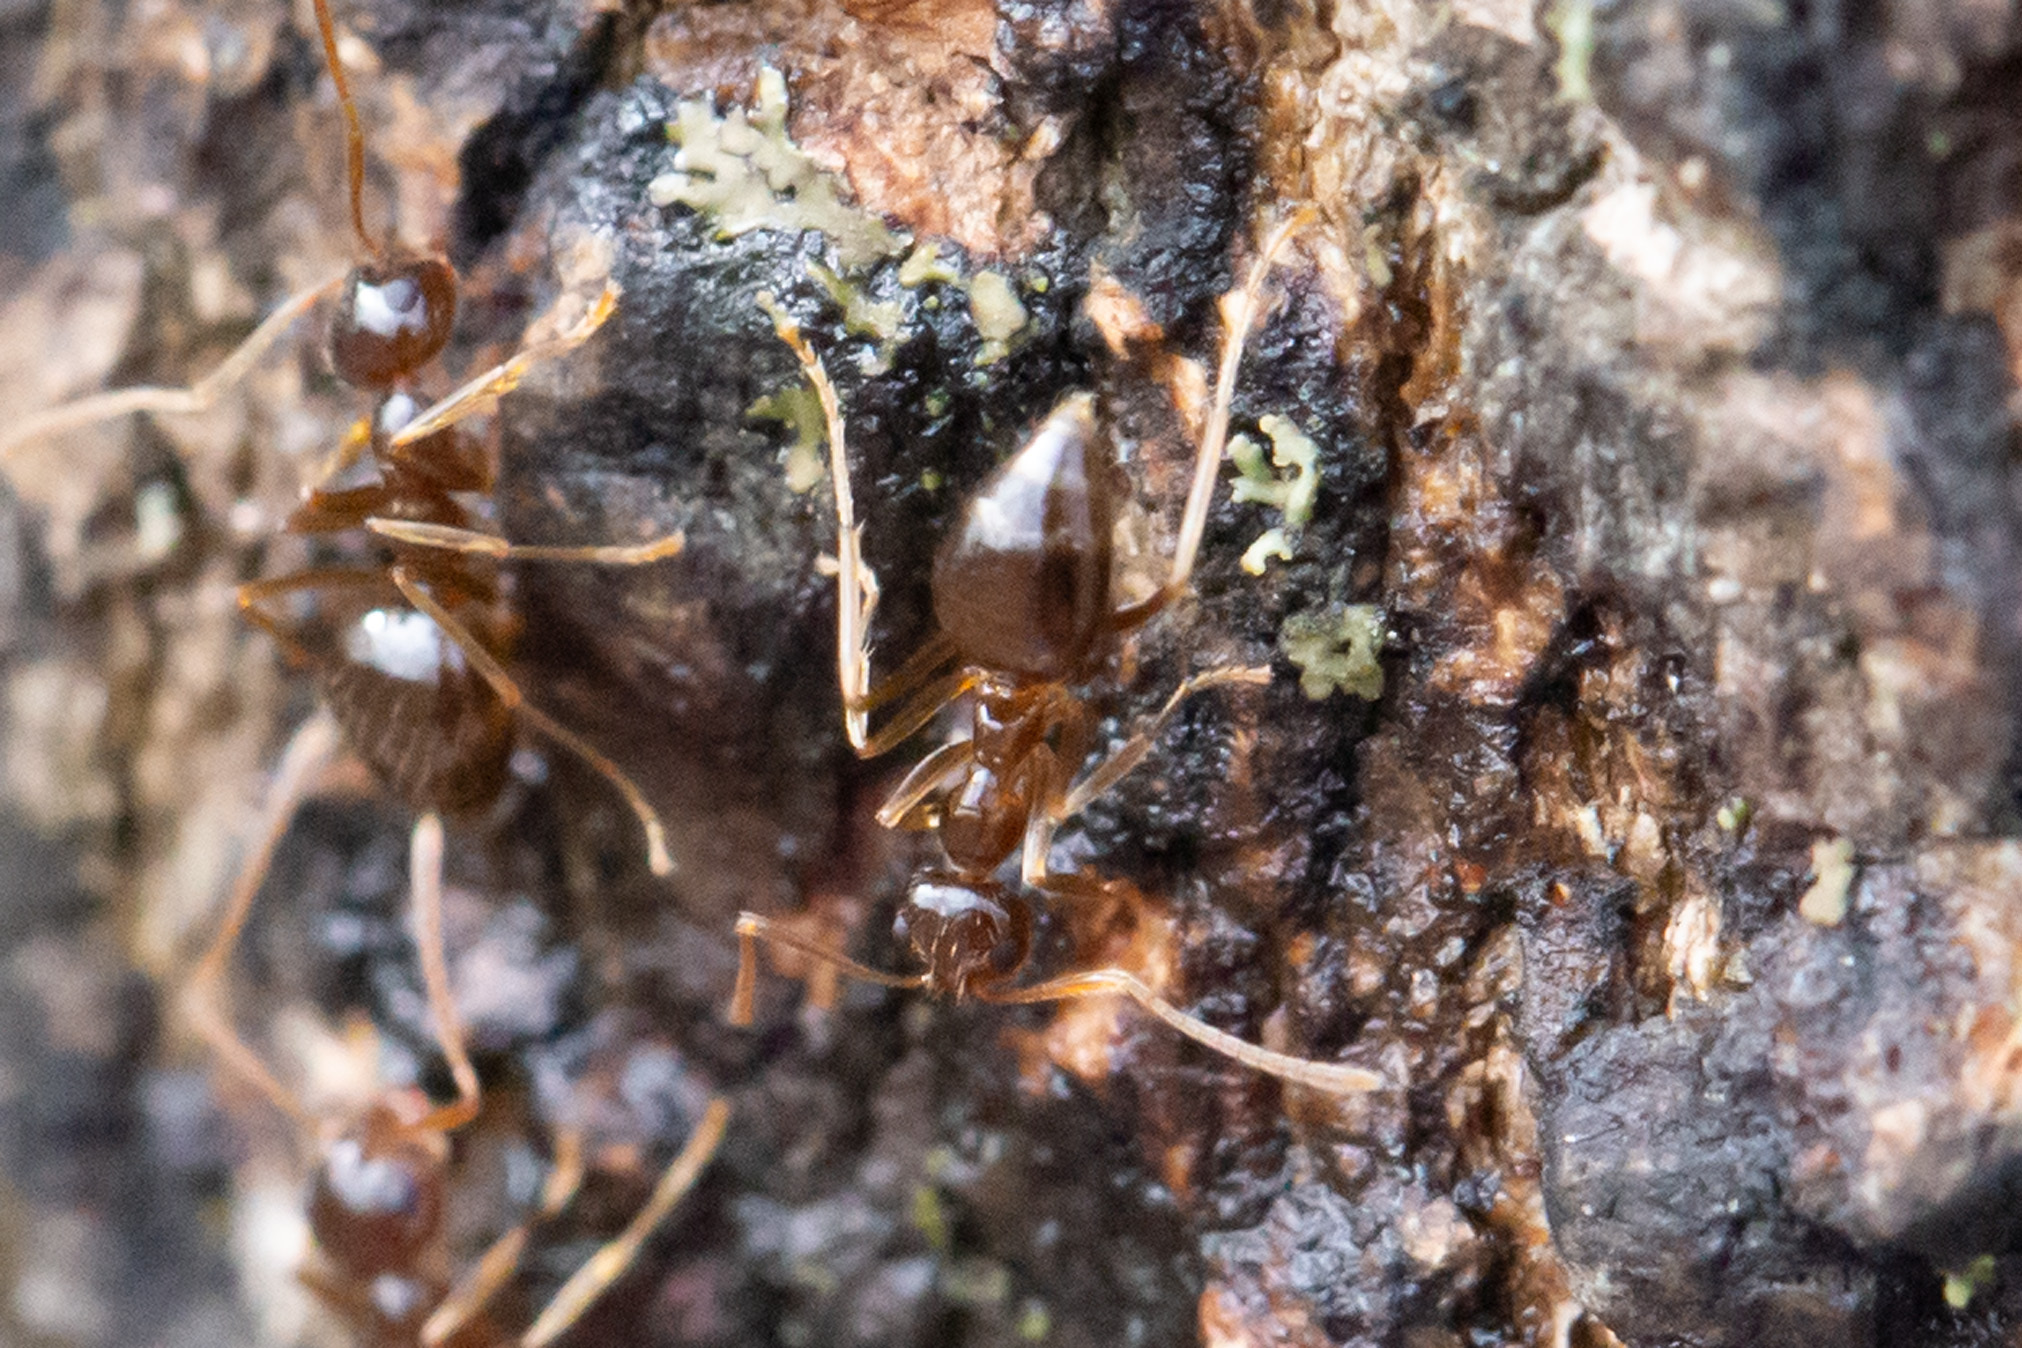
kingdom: Animalia
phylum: Arthropoda
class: Insecta
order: Hymenoptera
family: Formicidae
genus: Prenolepis
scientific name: Prenolepis imparis
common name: Small honey ant
